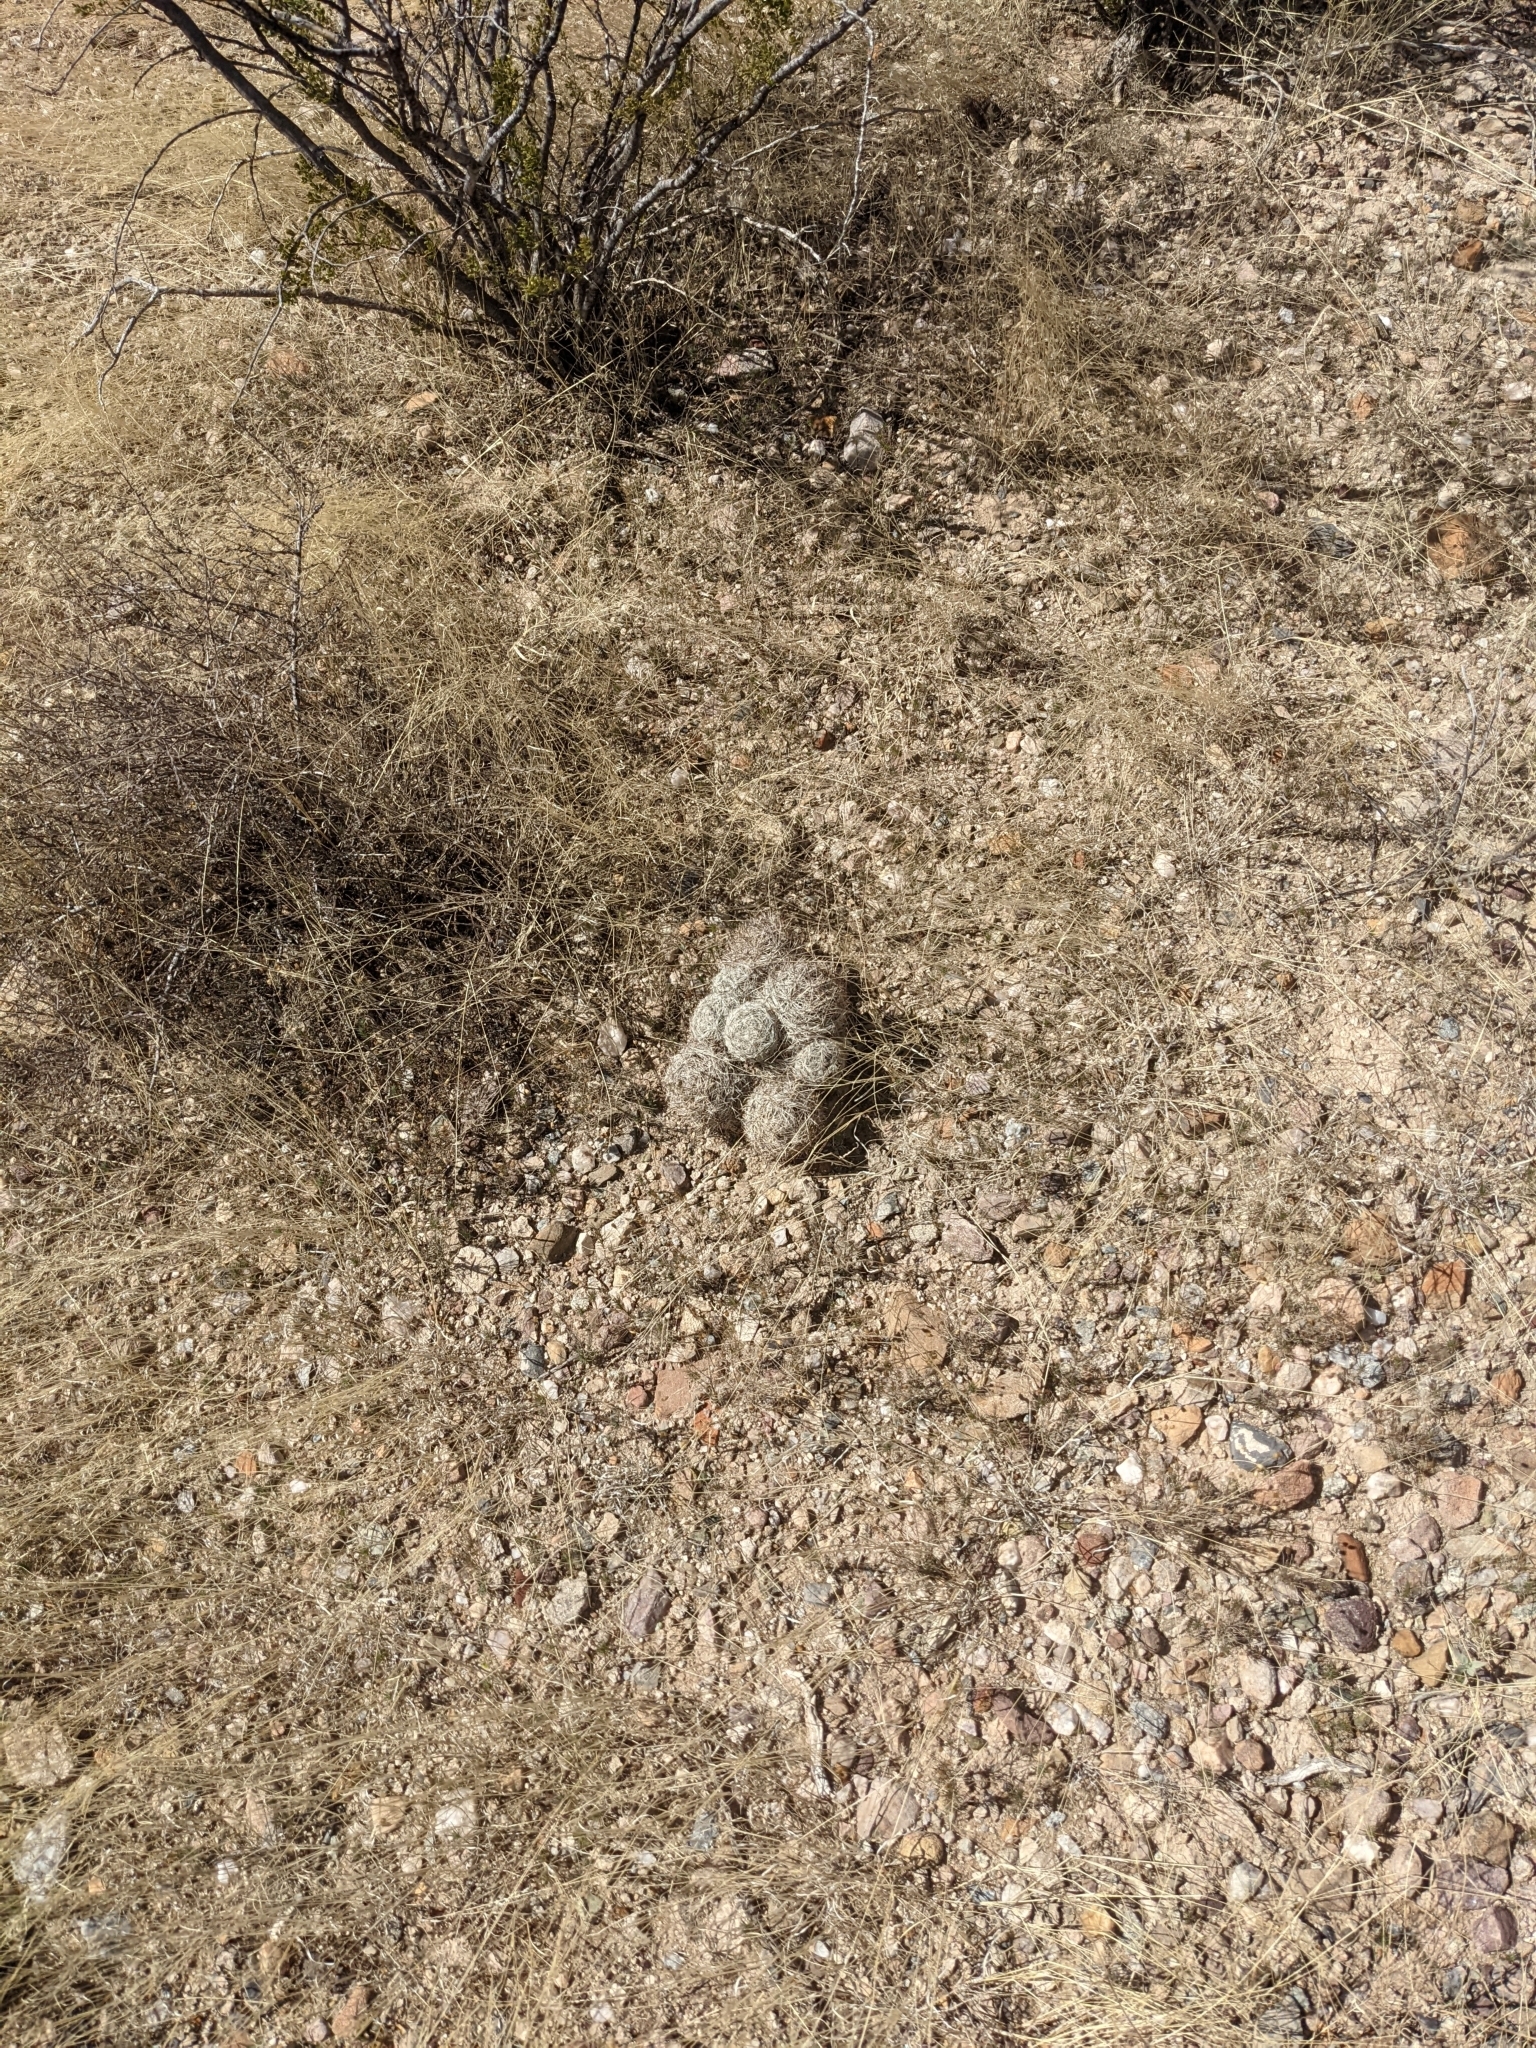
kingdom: Plantae
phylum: Tracheophyta
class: Magnoliopsida
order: Caryophyllales
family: Cactaceae
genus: Pelecyphora
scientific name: Pelecyphora vivipara
